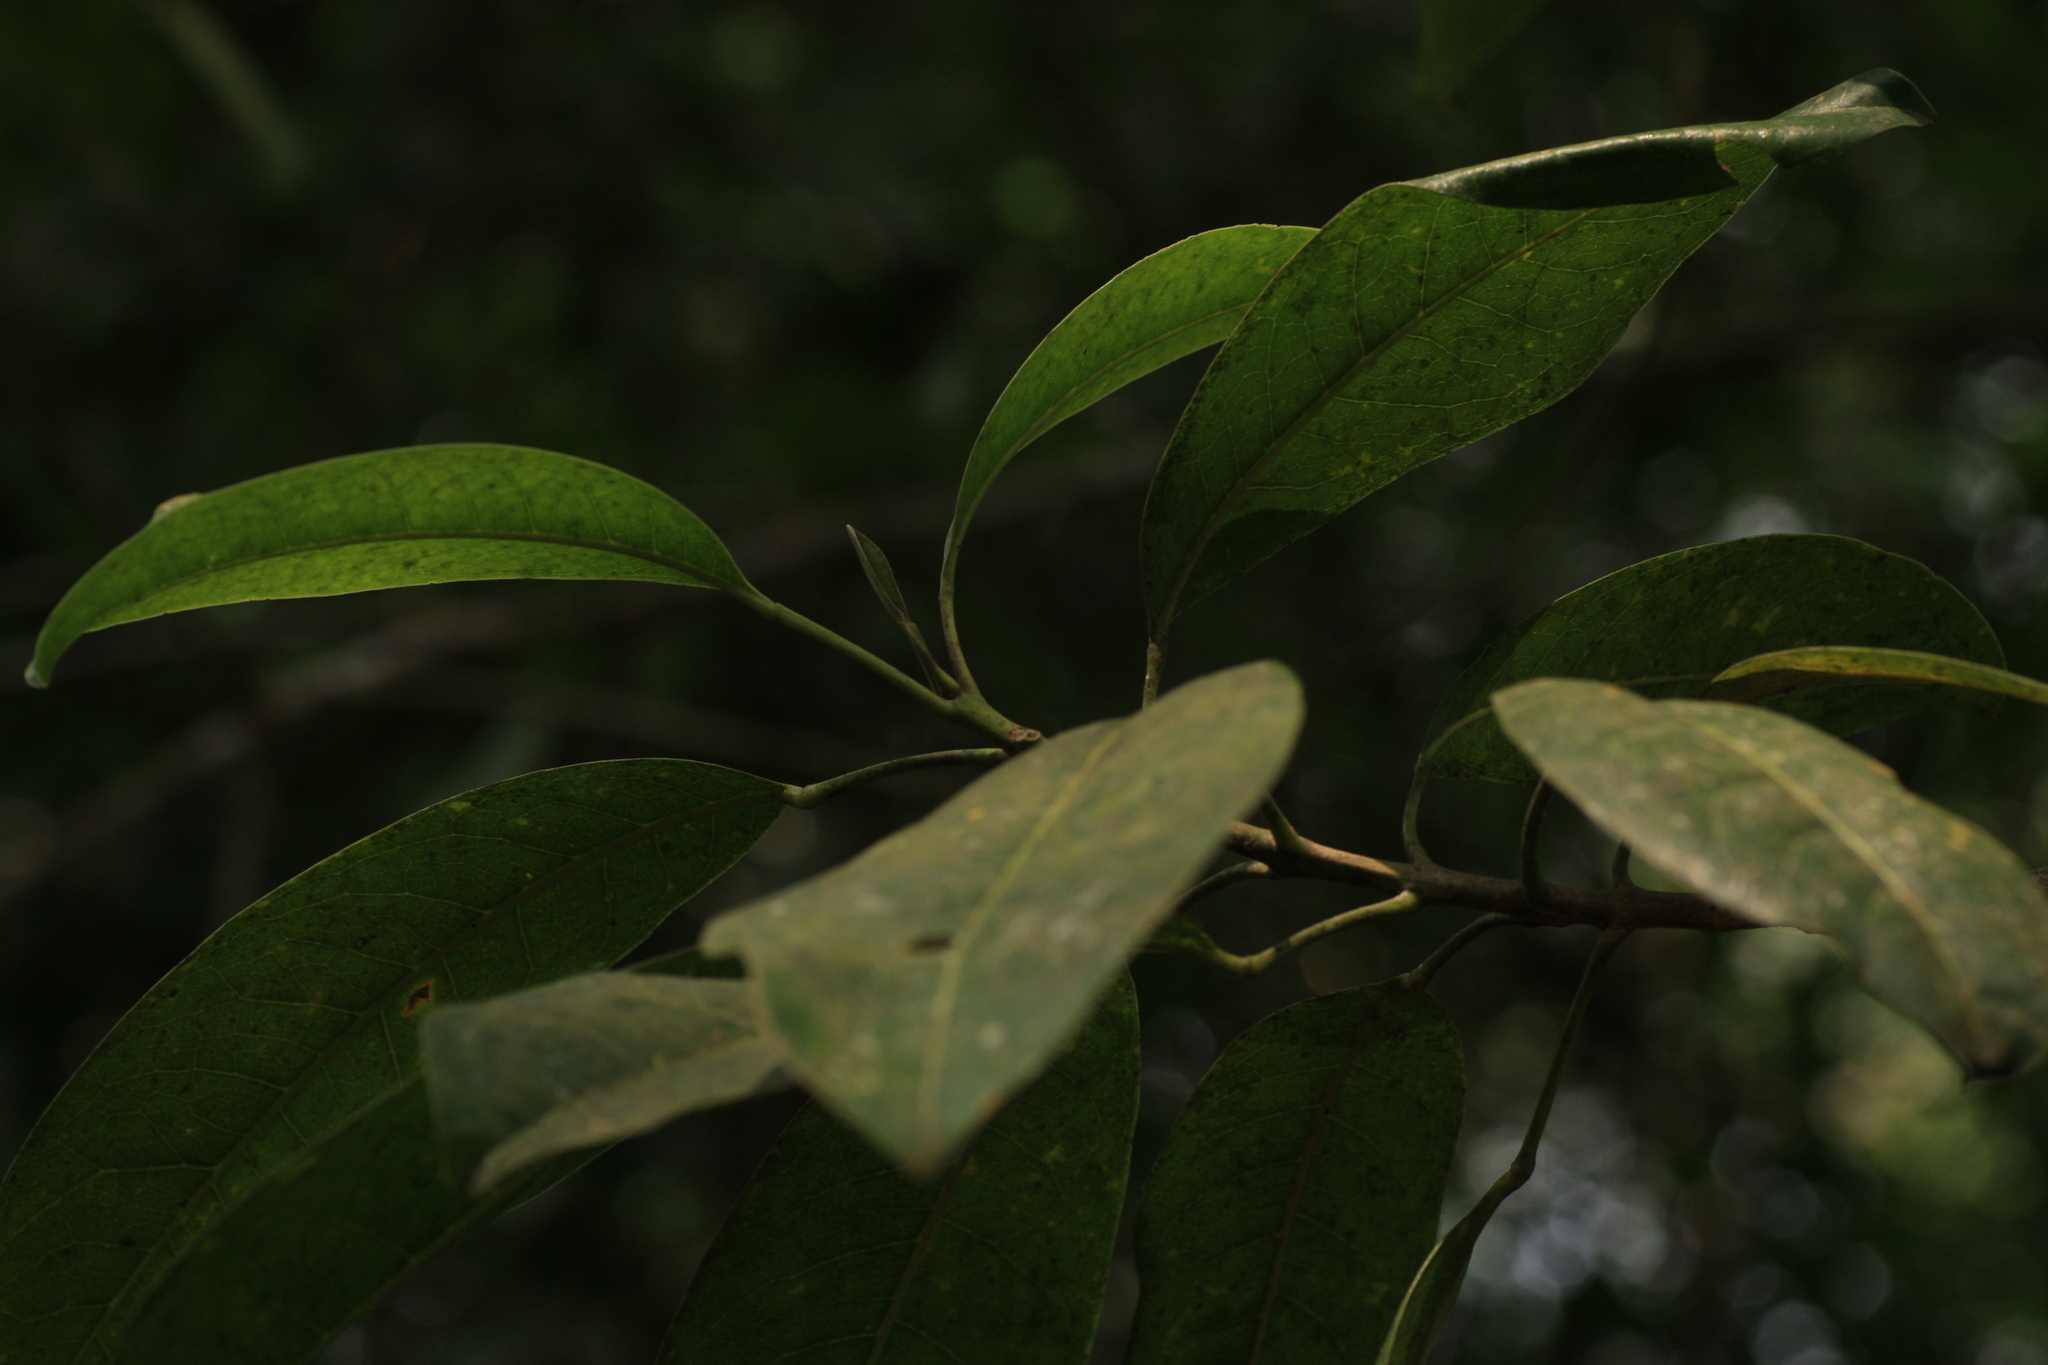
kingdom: Plantae
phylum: Tracheophyta
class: Magnoliopsida
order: Sapindales
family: Rutaceae
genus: Acronychia
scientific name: Acronychia pedunculata
